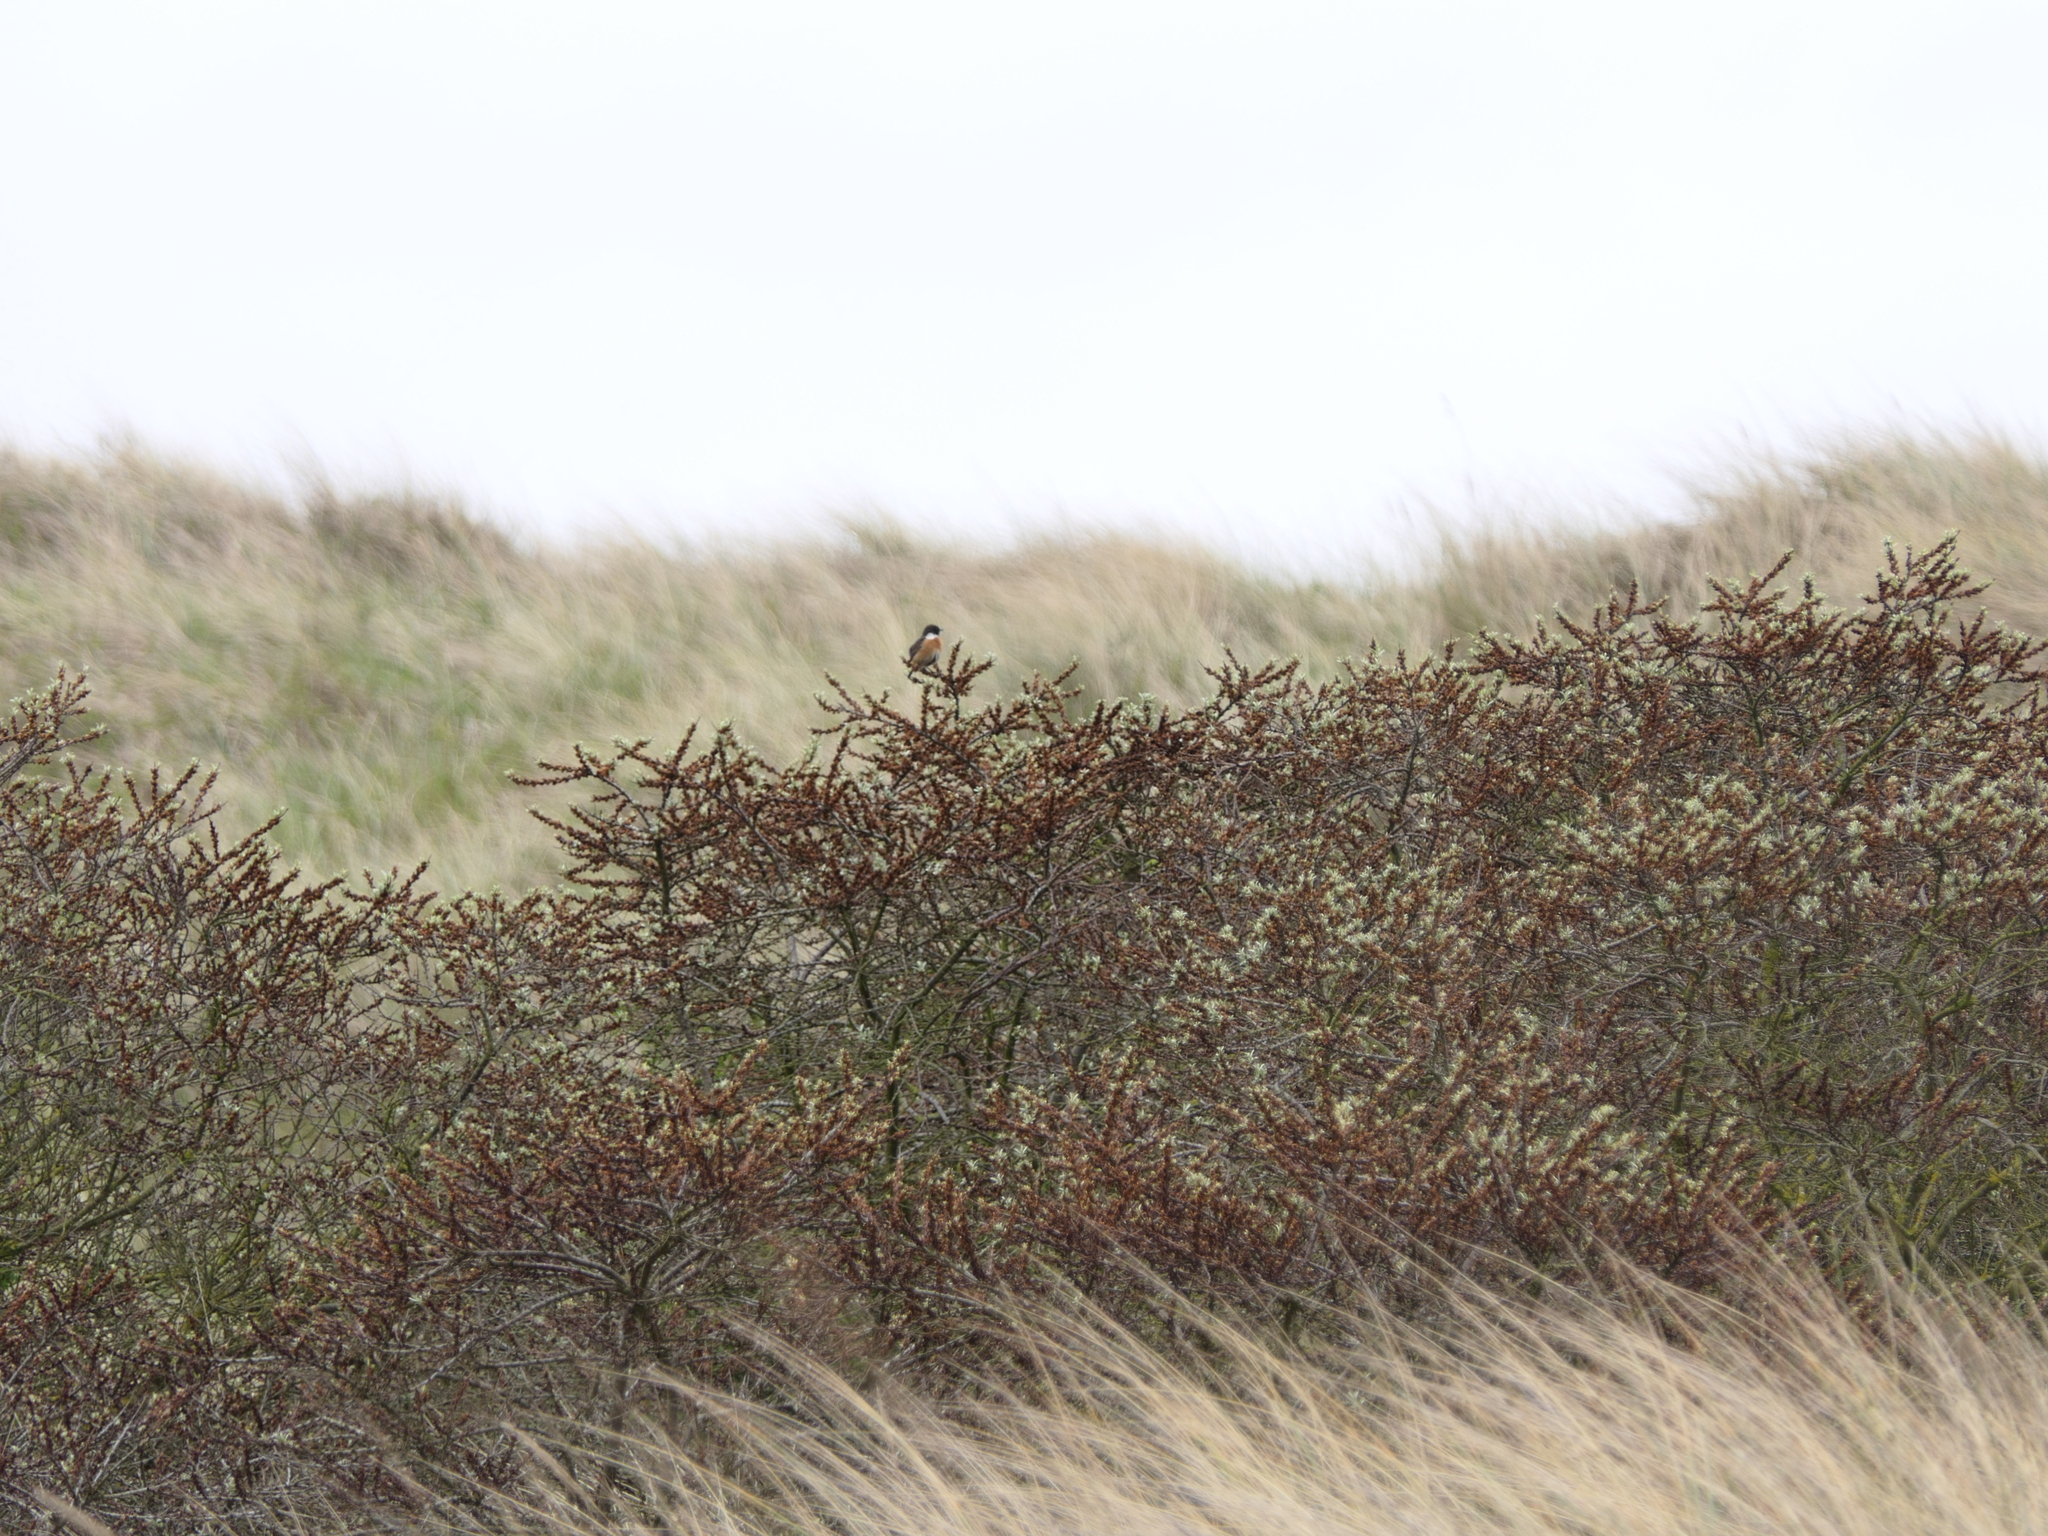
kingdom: Animalia
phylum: Chordata
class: Aves
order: Passeriformes
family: Muscicapidae
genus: Saxicola
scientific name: Saxicola rubicola
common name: European stonechat
